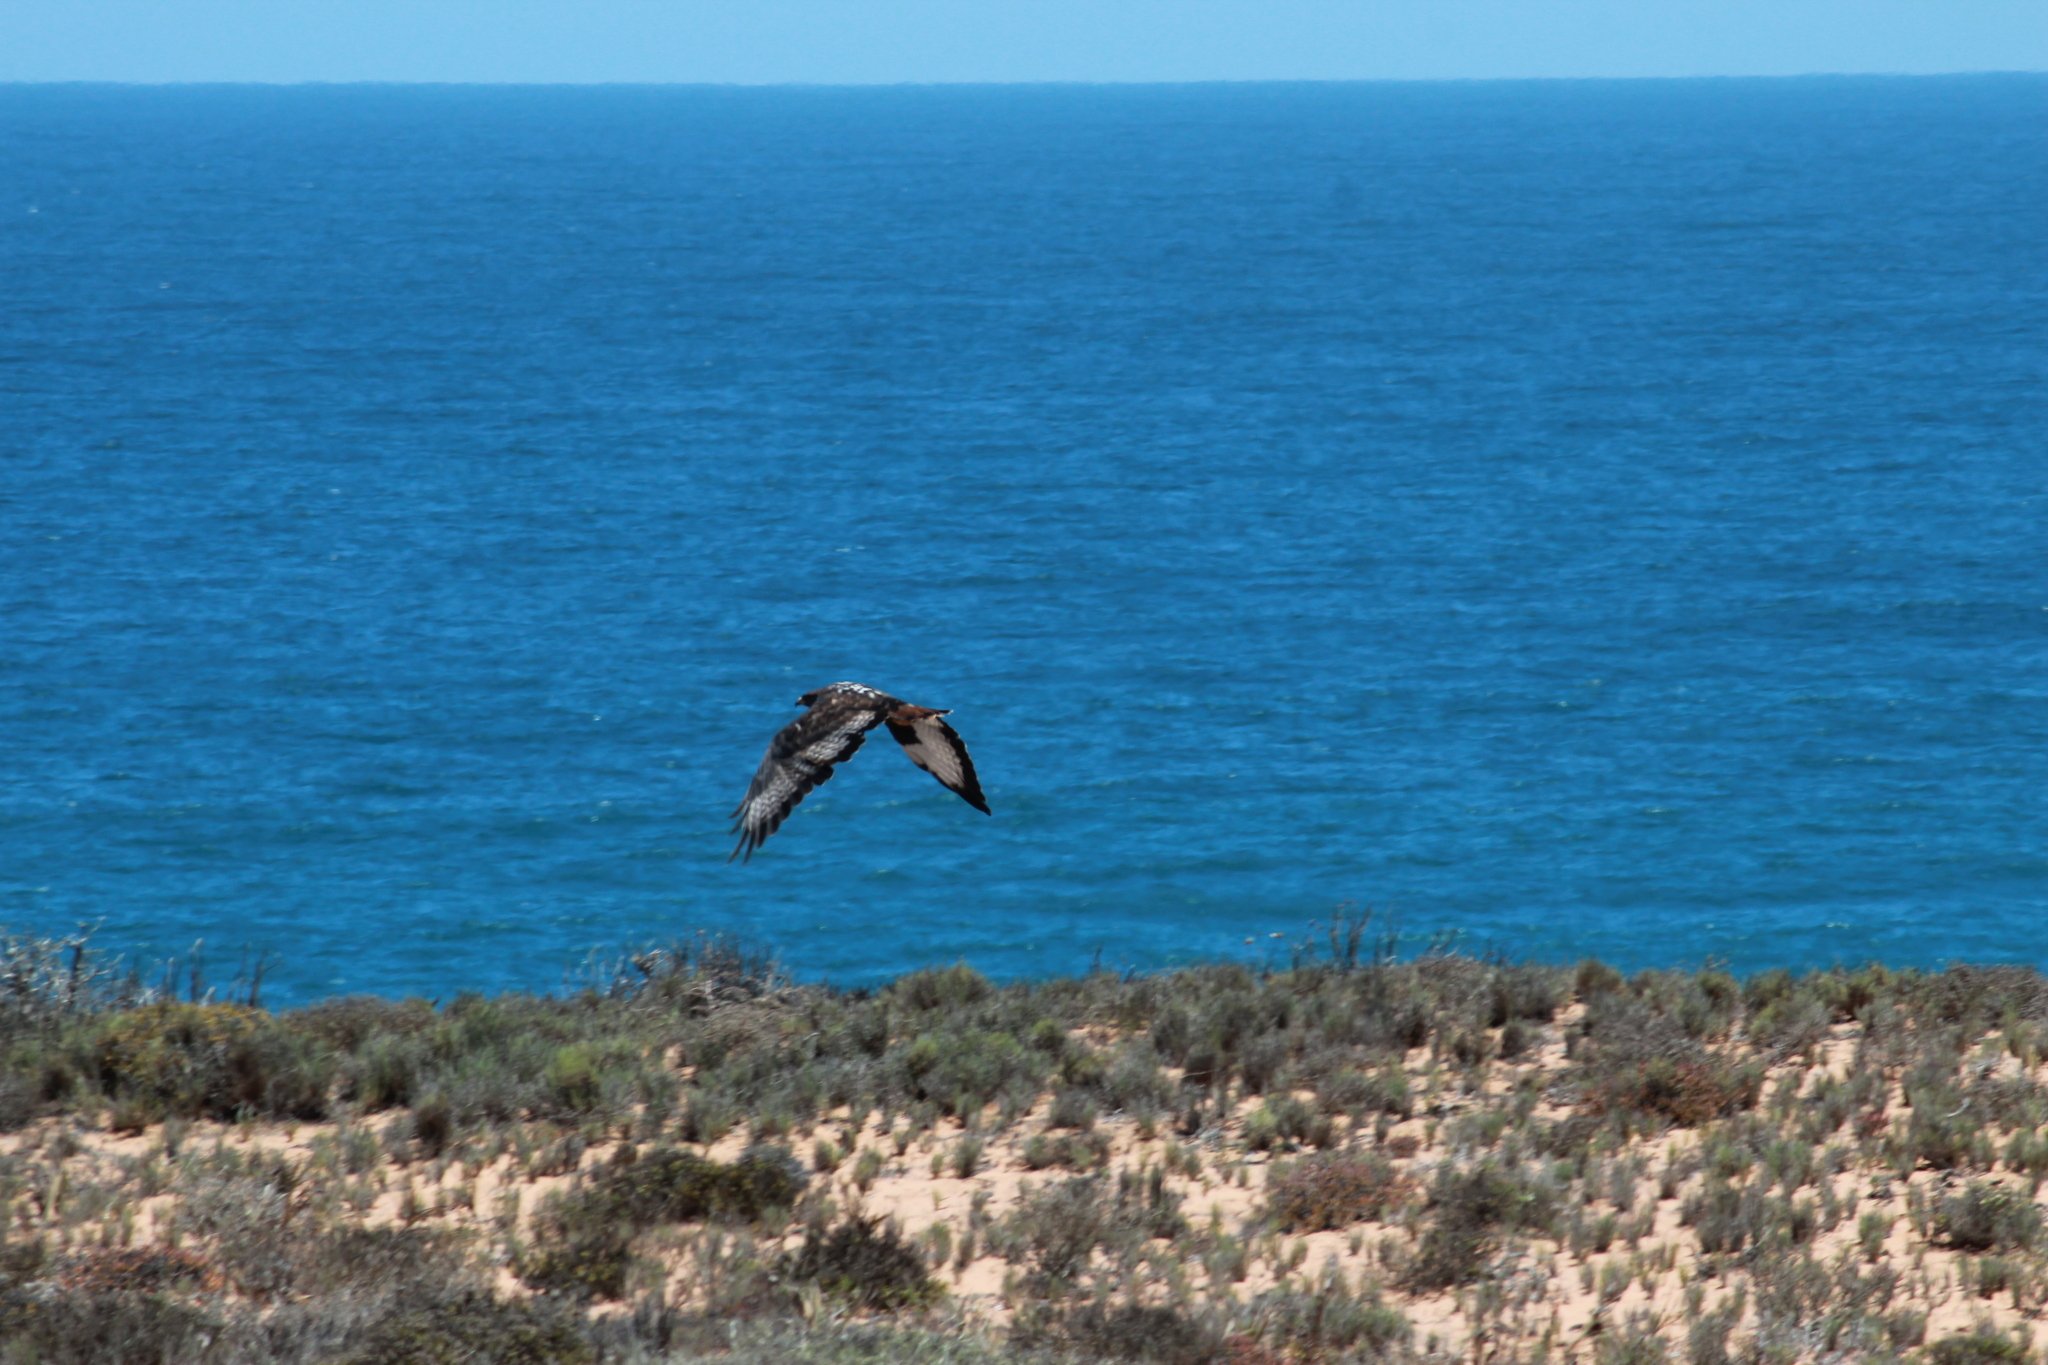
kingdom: Animalia
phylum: Chordata
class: Aves
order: Accipitriformes
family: Accipitridae
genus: Buteo
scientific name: Buteo rufofuscus
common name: Jackal buzzard
